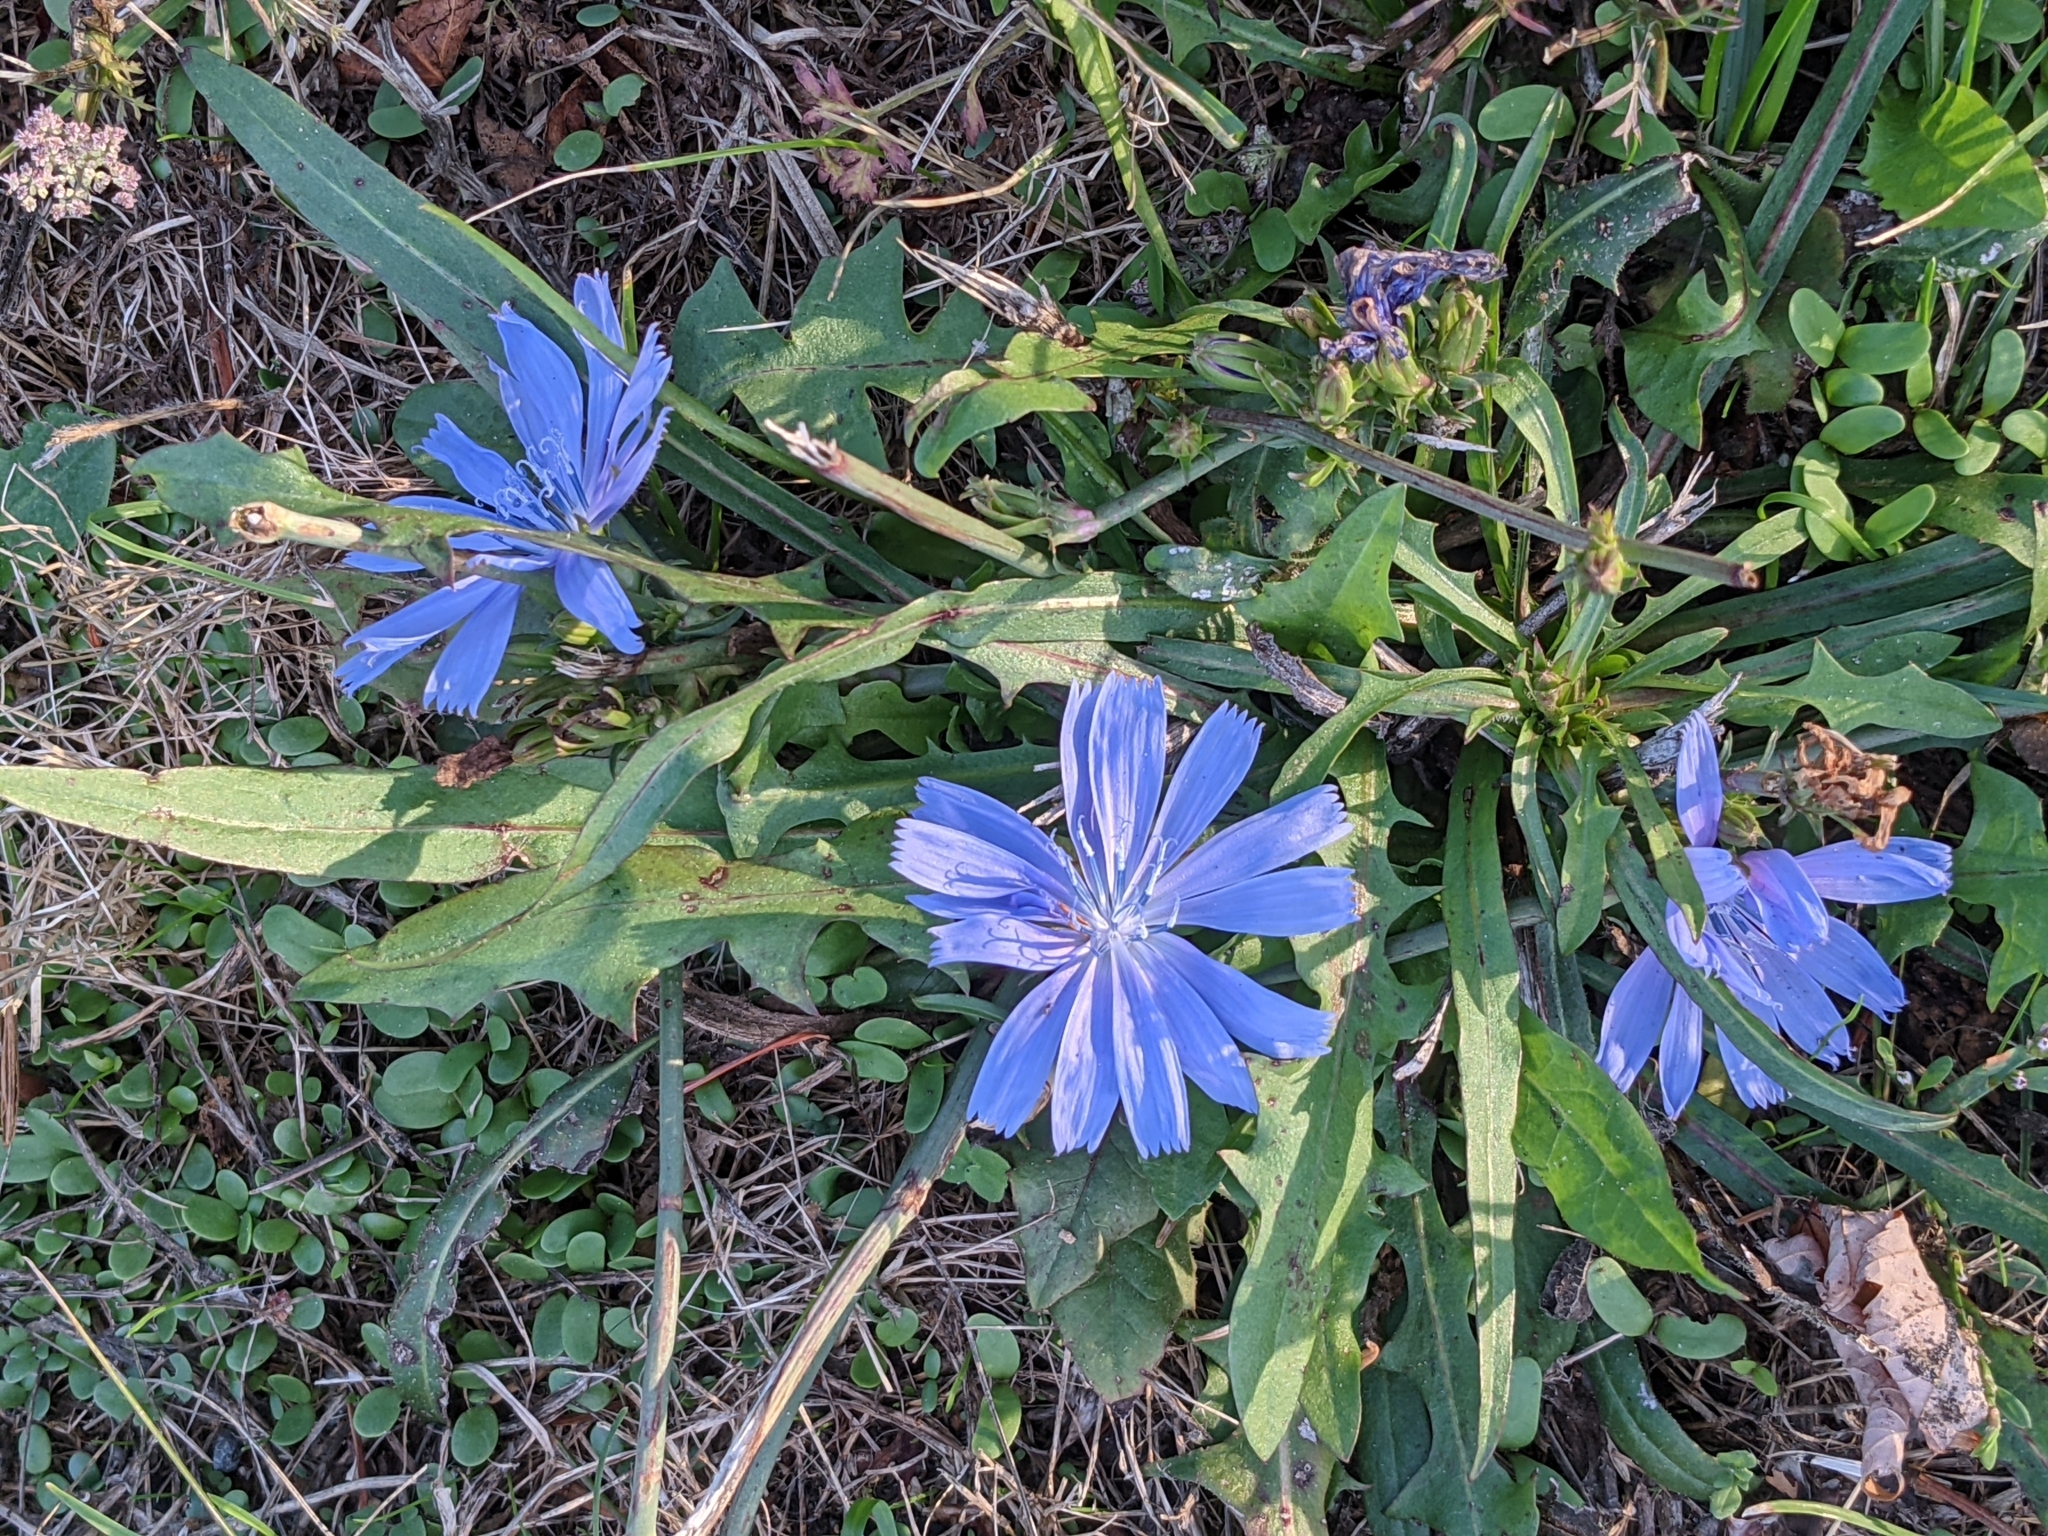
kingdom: Plantae
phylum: Tracheophyta
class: Magnoliopsida
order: Asterales
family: Asteraceae
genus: Cichorium
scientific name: Cichorium intybus
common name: Chicory
